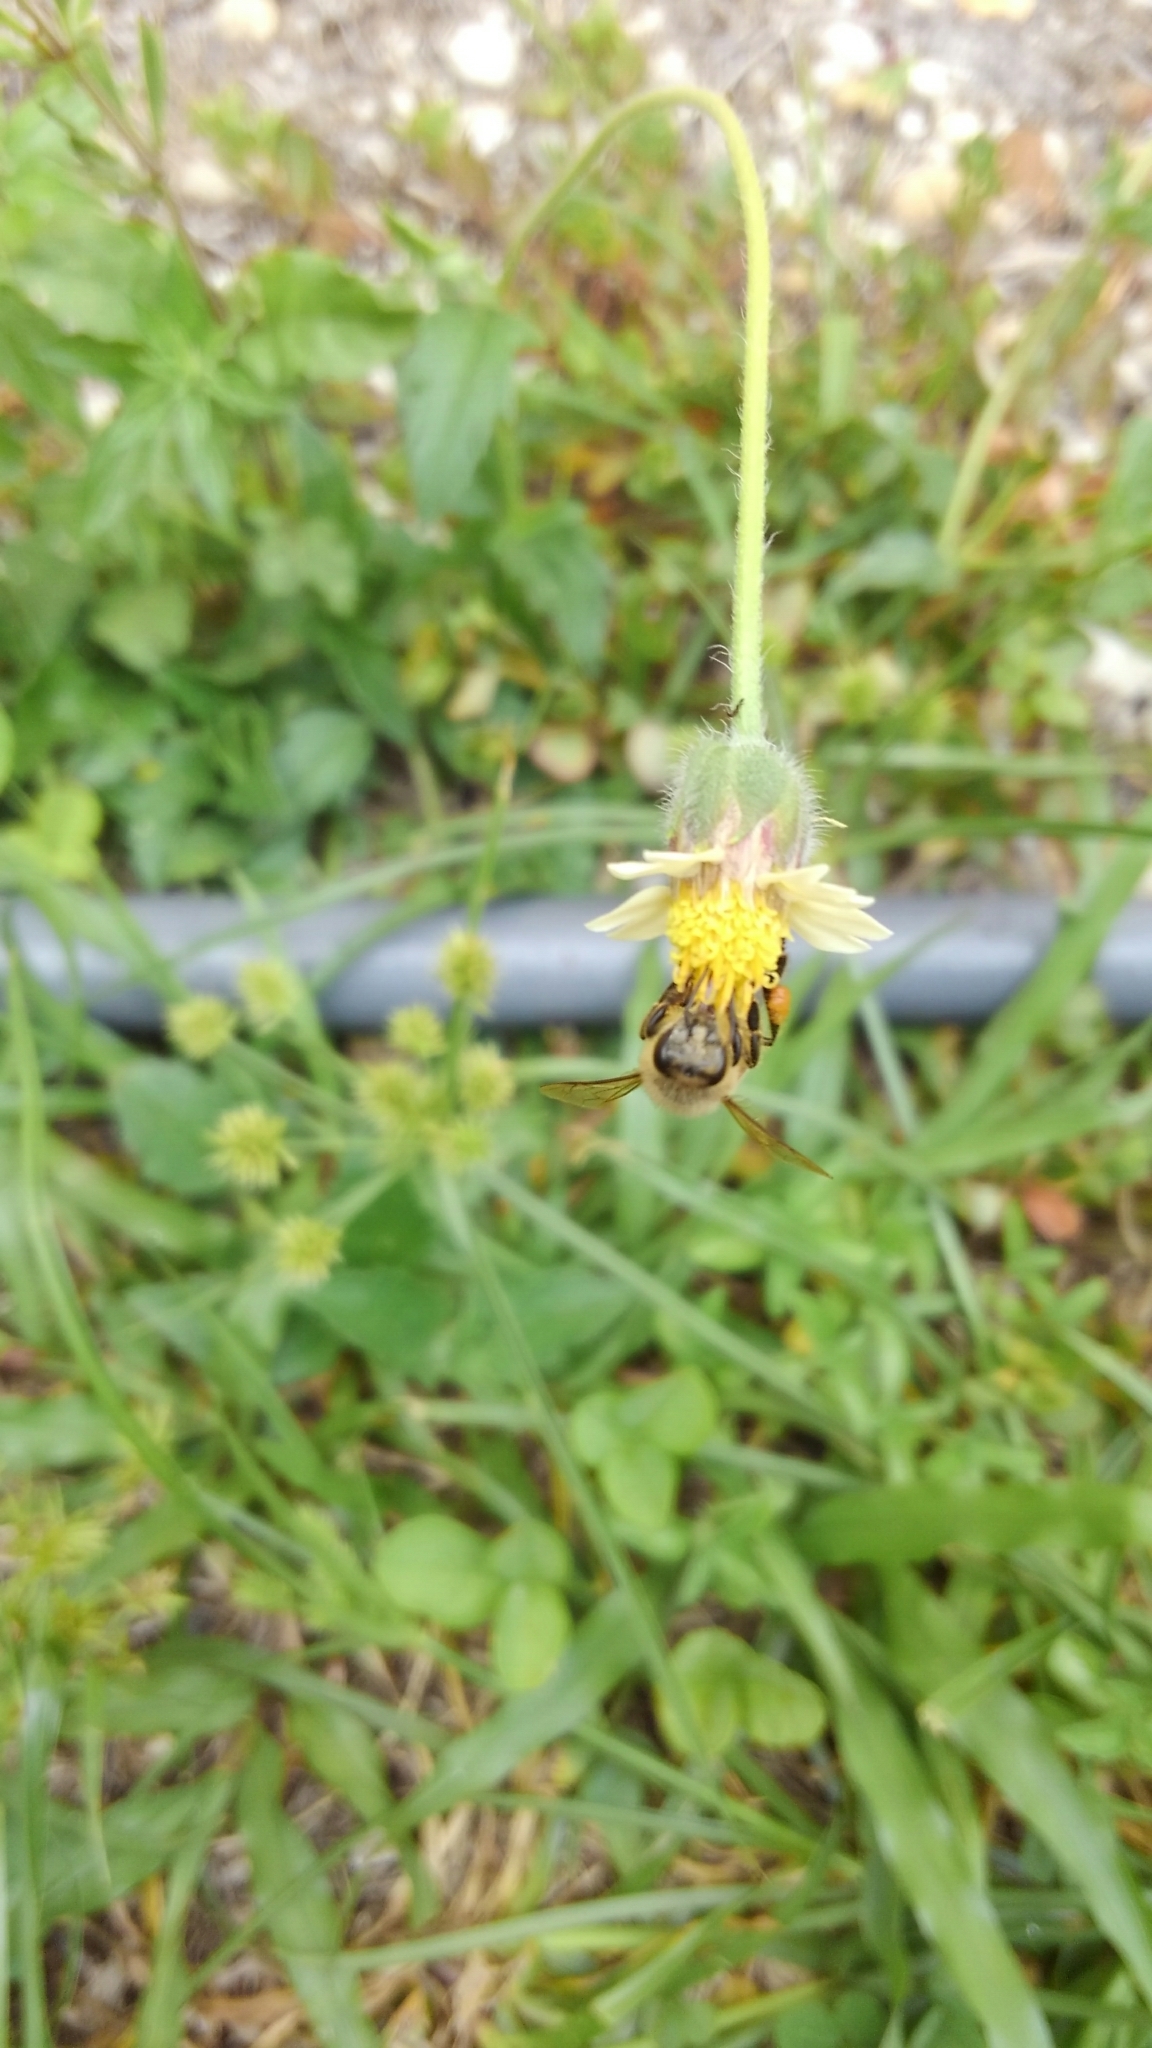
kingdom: Animalia
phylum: Arthropoda
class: Insecta
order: Hymenoptera
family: Apidae
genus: Apis
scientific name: Apis mellifera
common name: Honey bee
